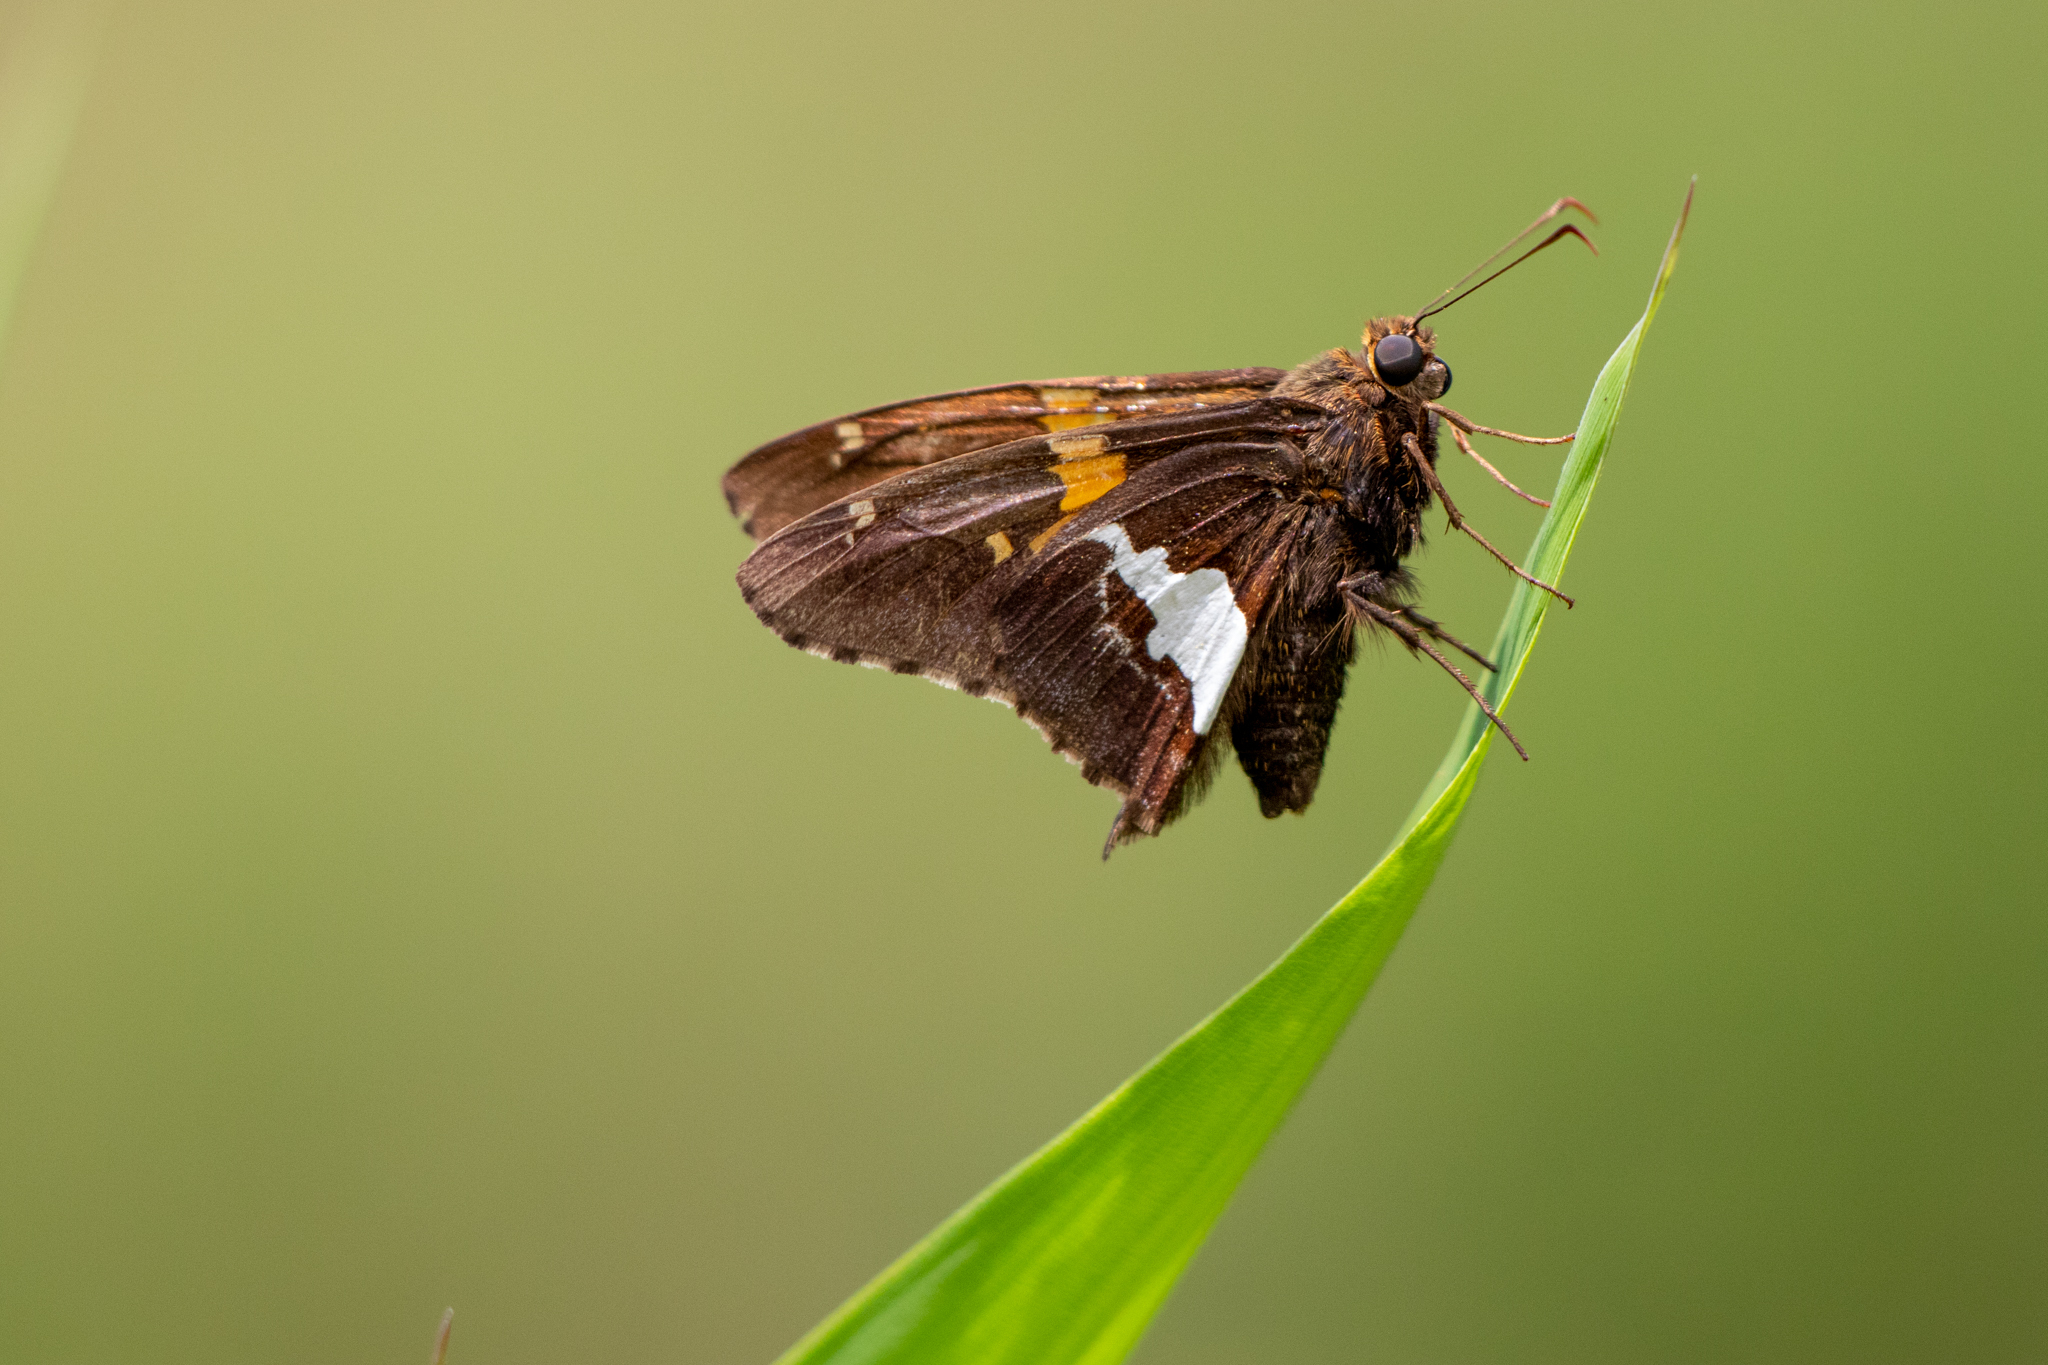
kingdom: Animalia
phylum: Arthropoda
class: Insecta
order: Lepidoptera
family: Hesperiidae
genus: Epargyreus
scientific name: Epargyreus clarus
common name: Silver-spotted skipper
